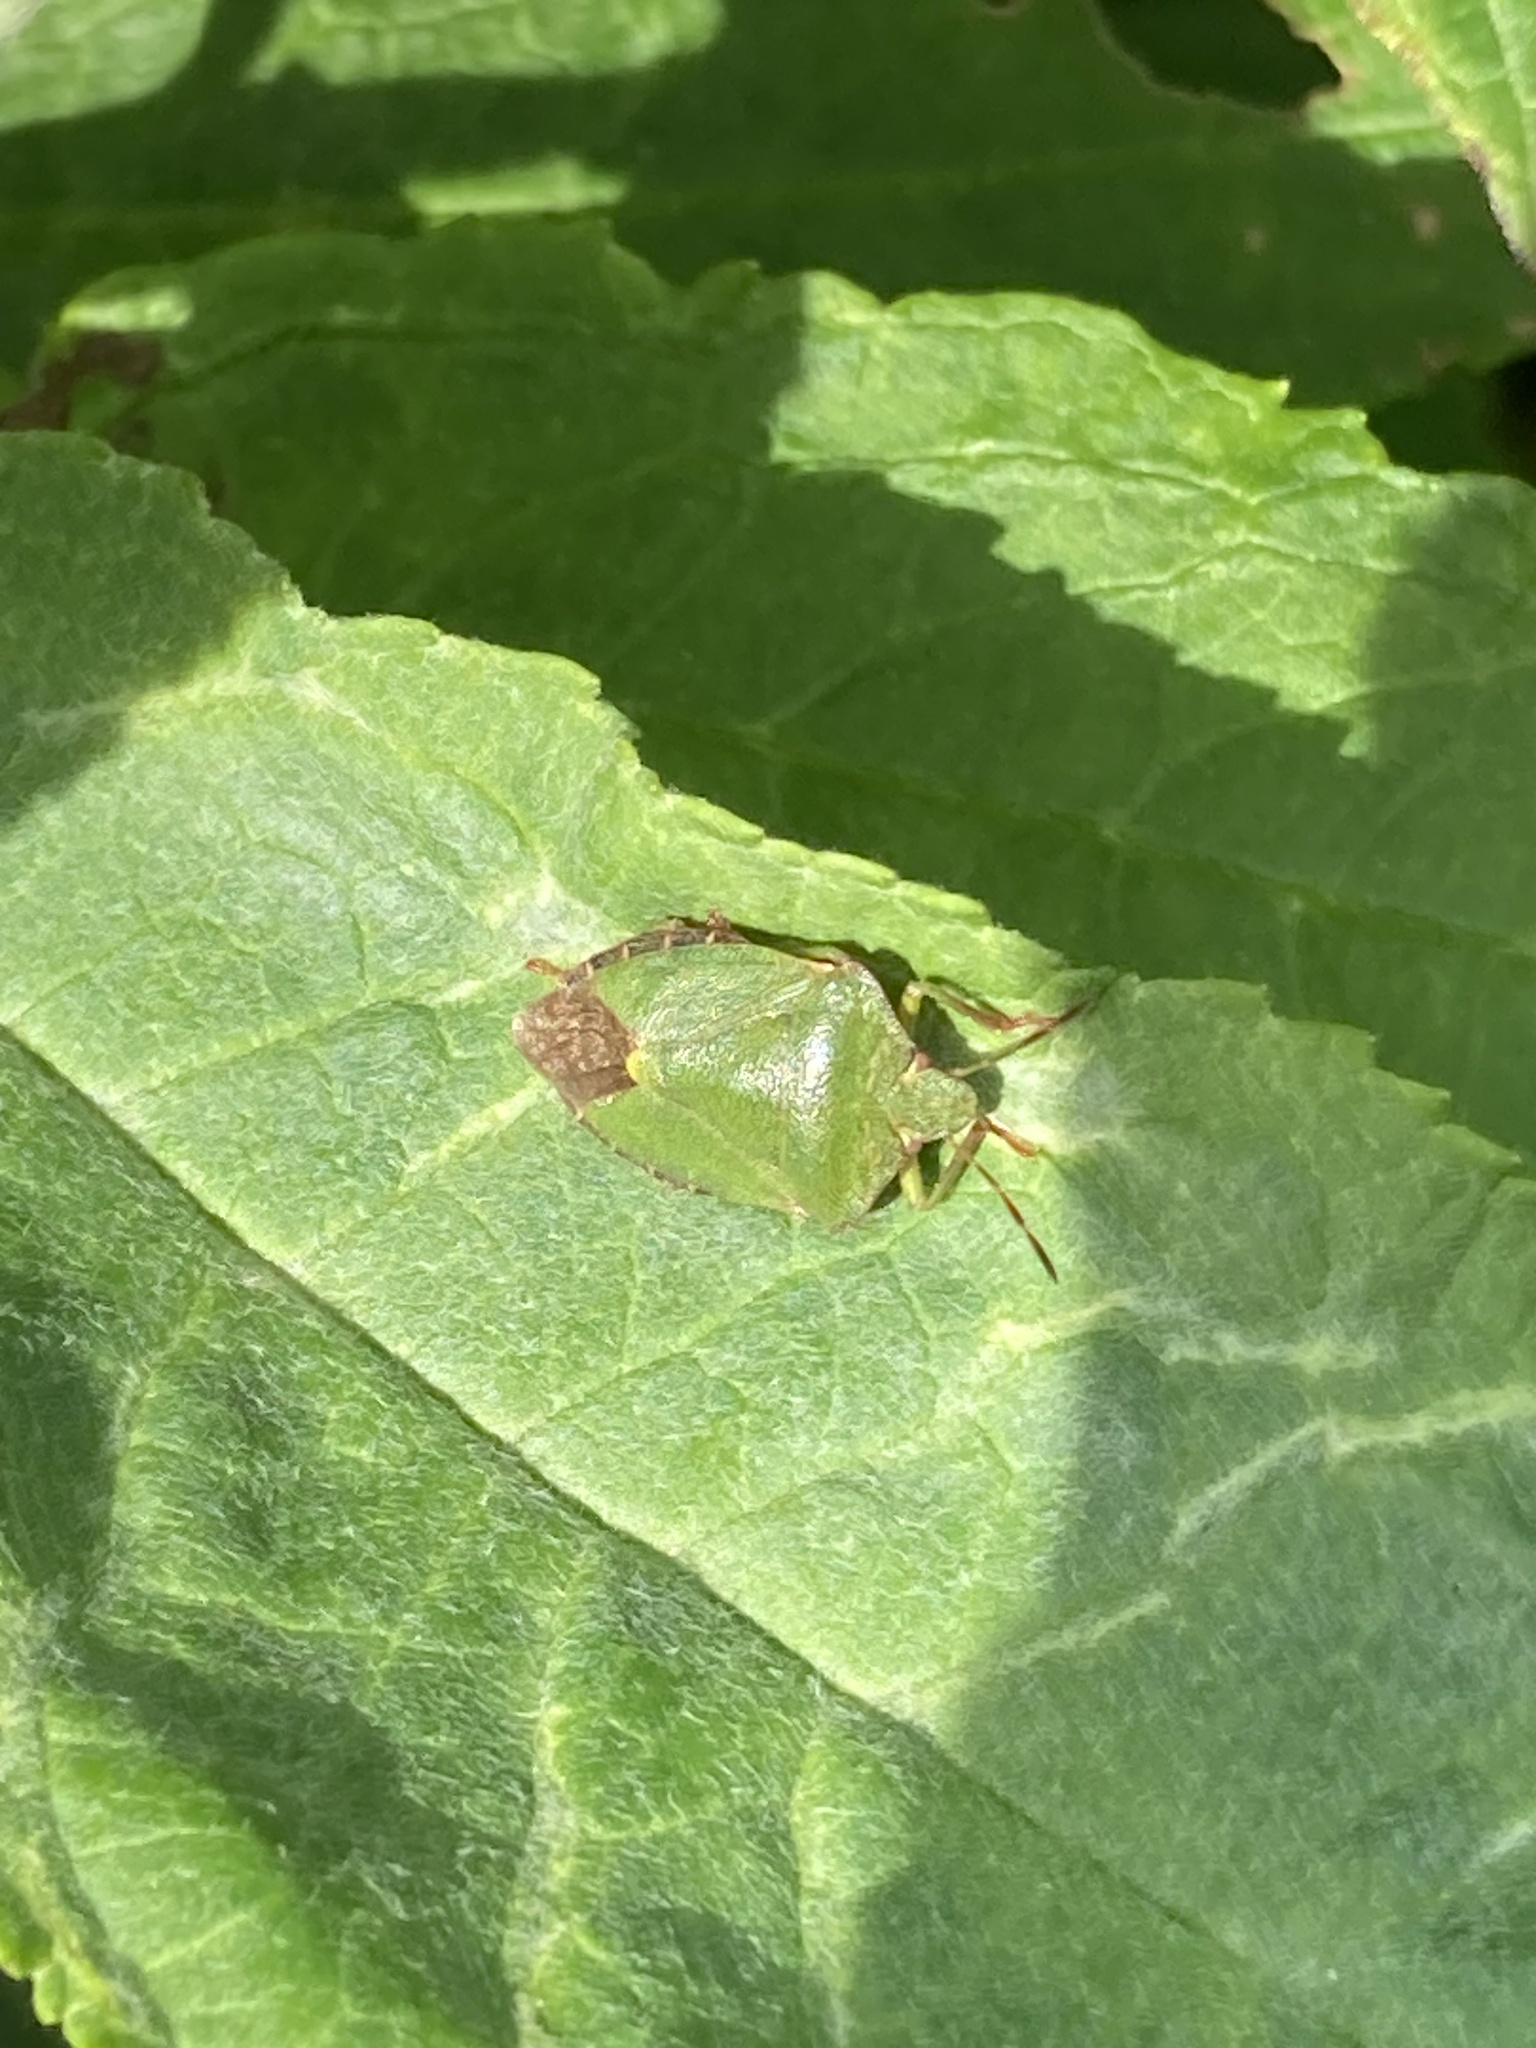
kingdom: Animalia
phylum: Arthropoda
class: Insecta
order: Hemiptera
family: Pentatomidae
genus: Palomena
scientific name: Palomena prasina
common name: Green shieldbug
